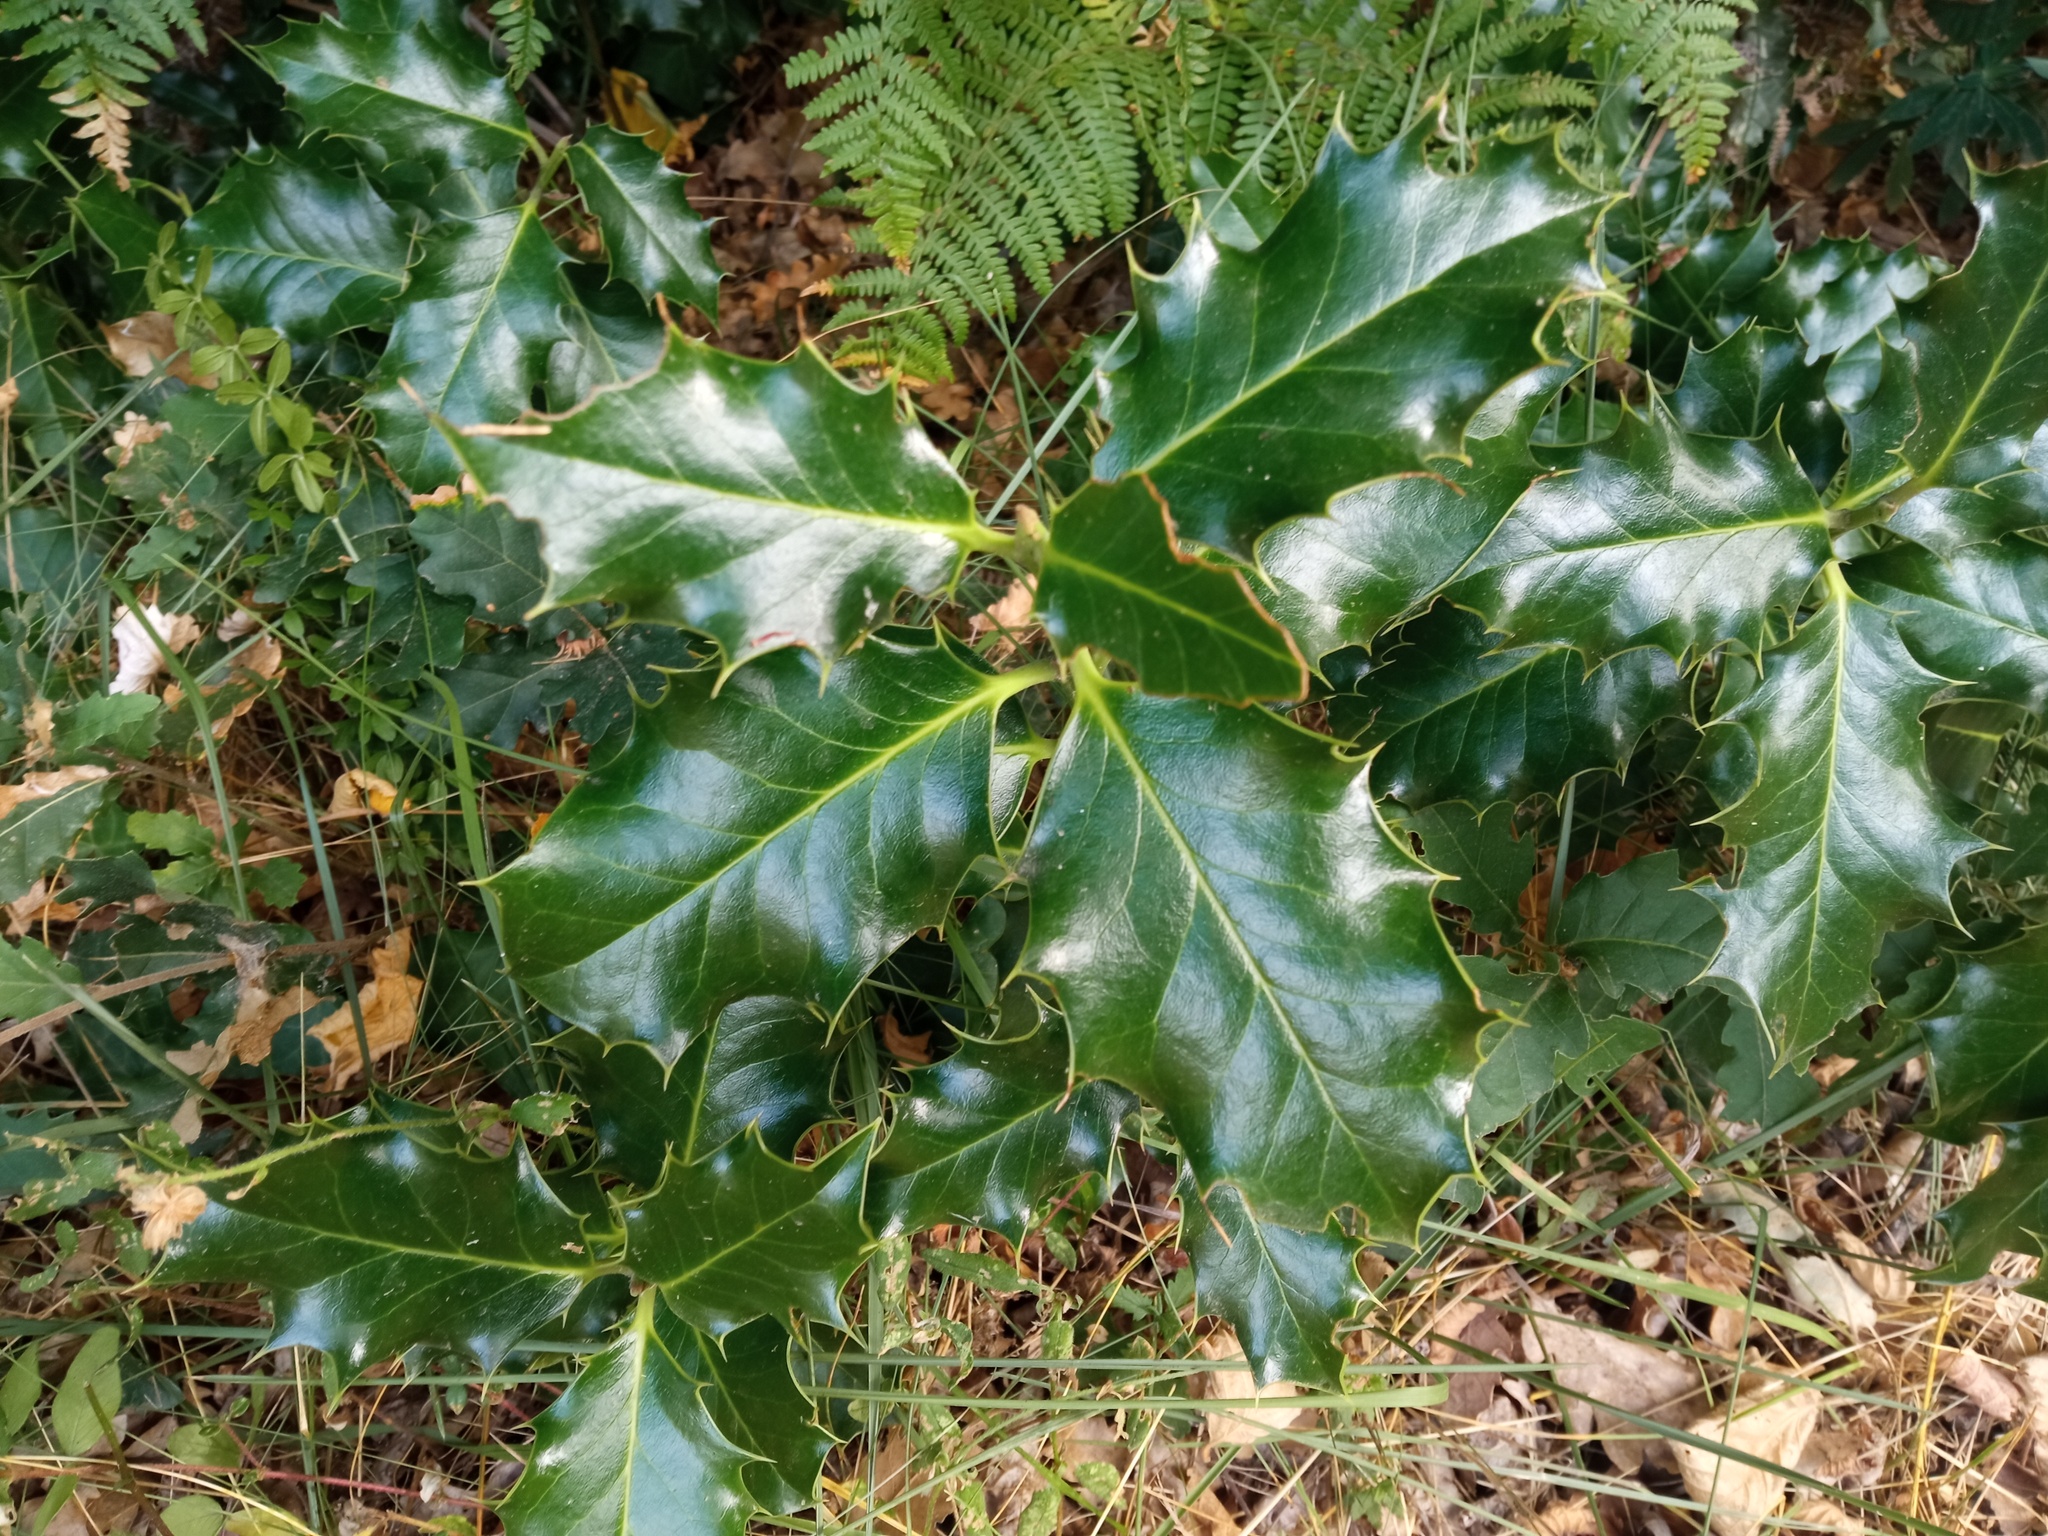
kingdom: Plantae
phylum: Tracheophyta
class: Magnoliopsida
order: Aquifoliales
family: Aquifoliaceae
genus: Ilex
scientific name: Ilex aquifolium
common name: English holly
